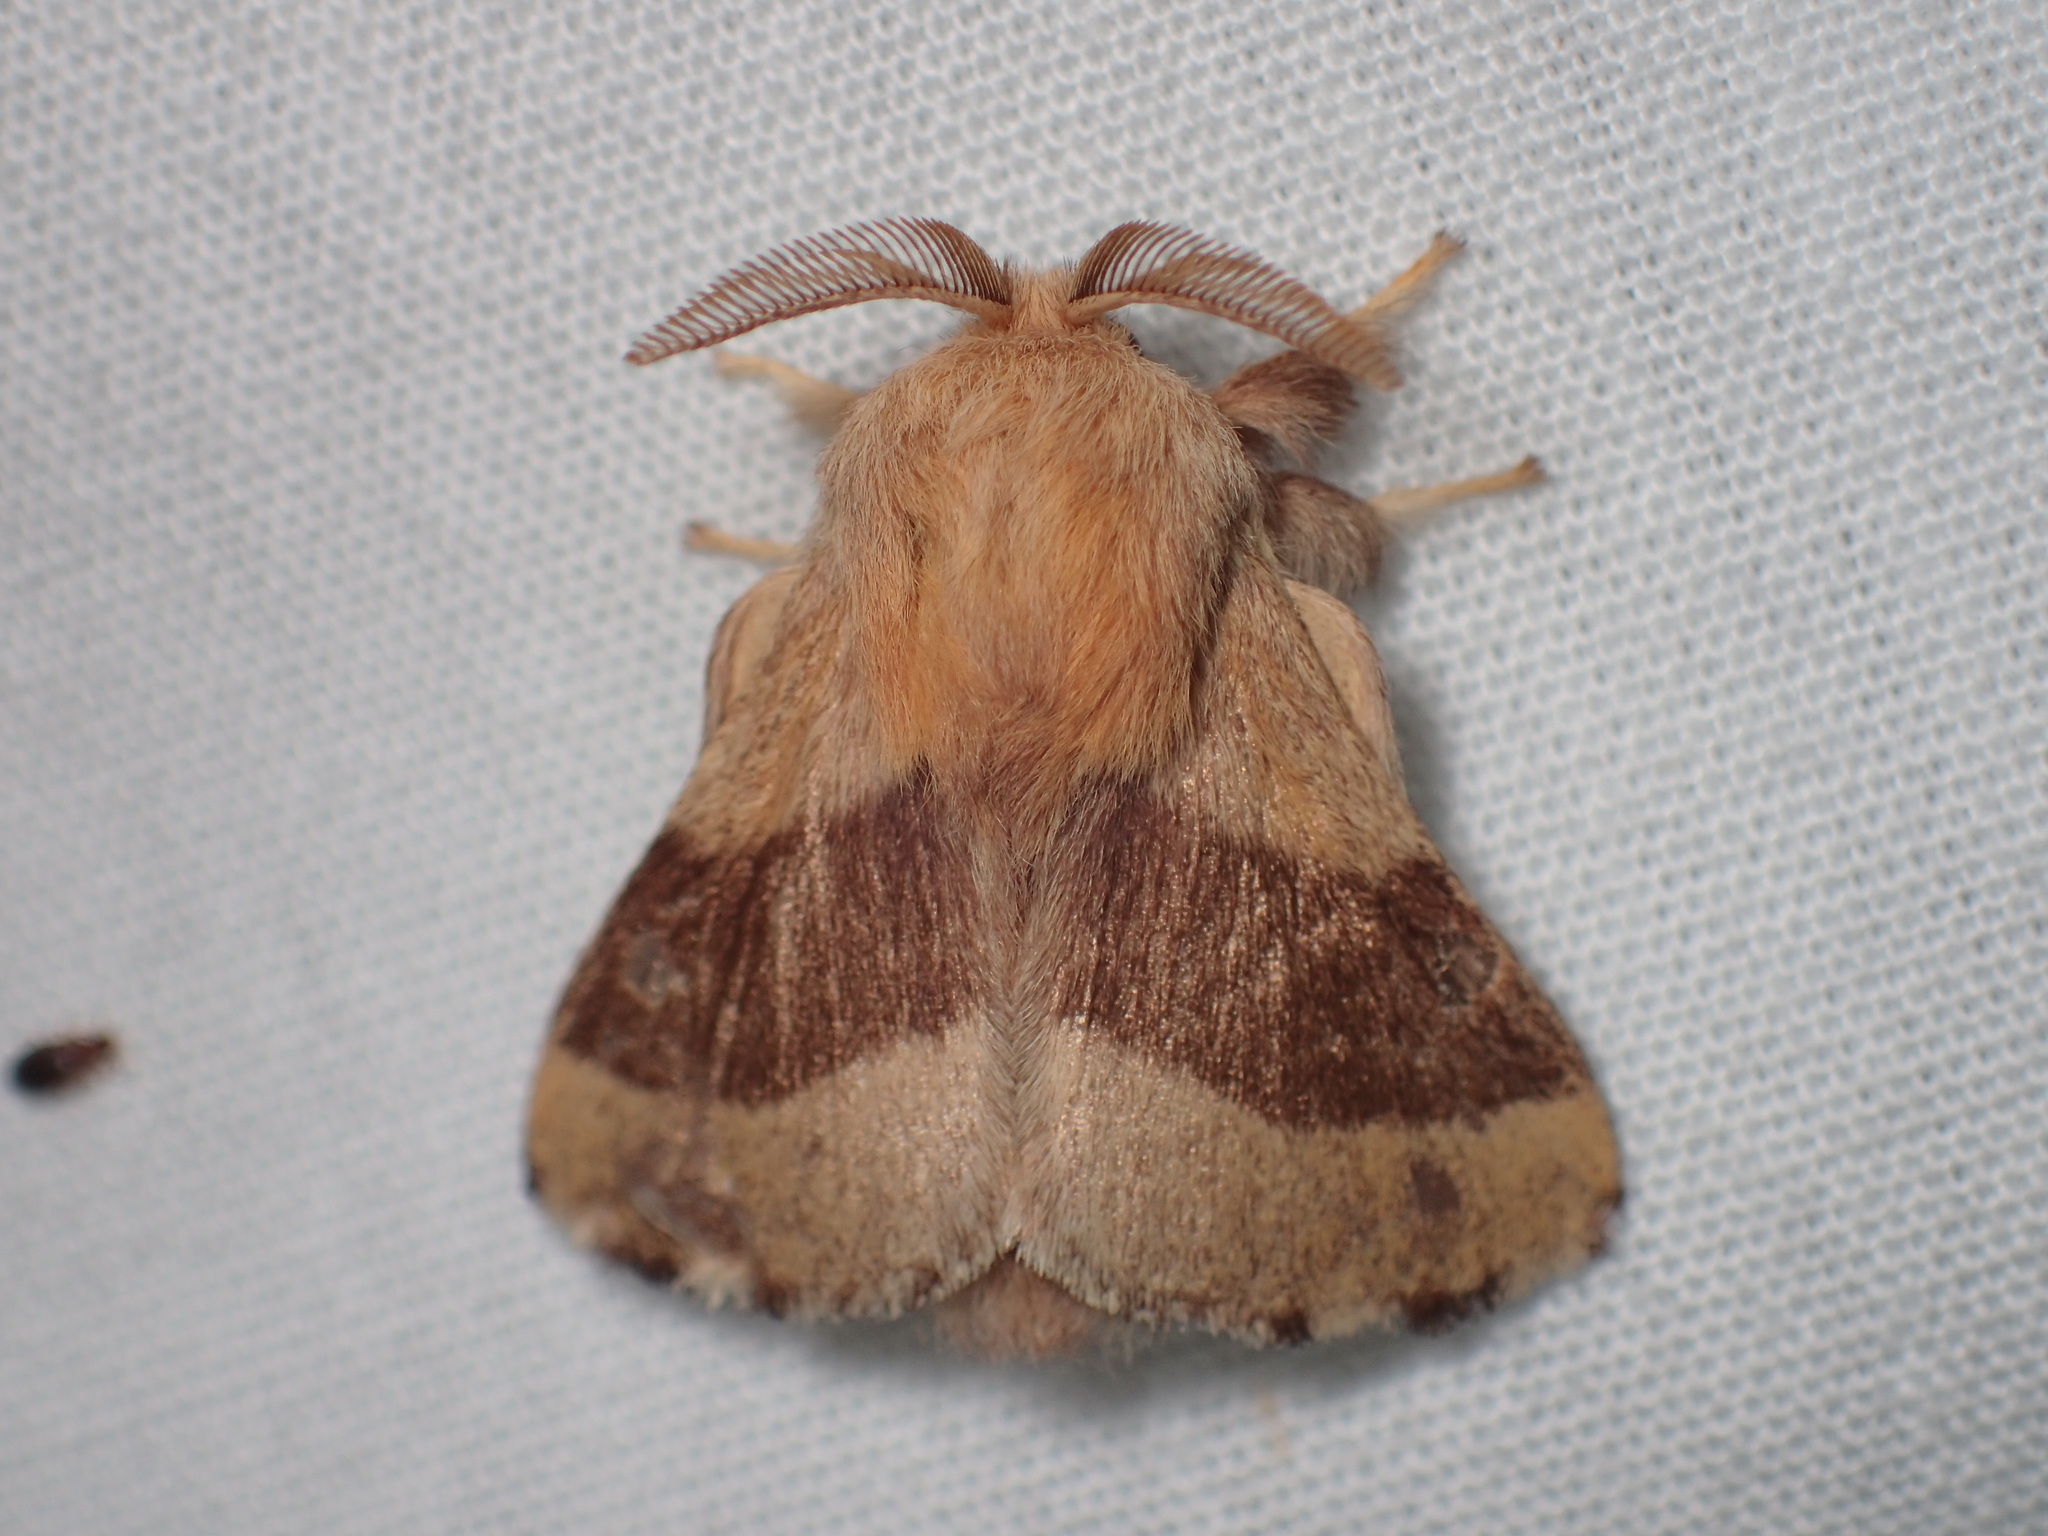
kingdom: Animalia
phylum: Arthropoda
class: Insecta
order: Lepidoptera
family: Lasiocampidae
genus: Malacosoma
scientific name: Malacosoma disstria
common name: Forest tent caterpillar
